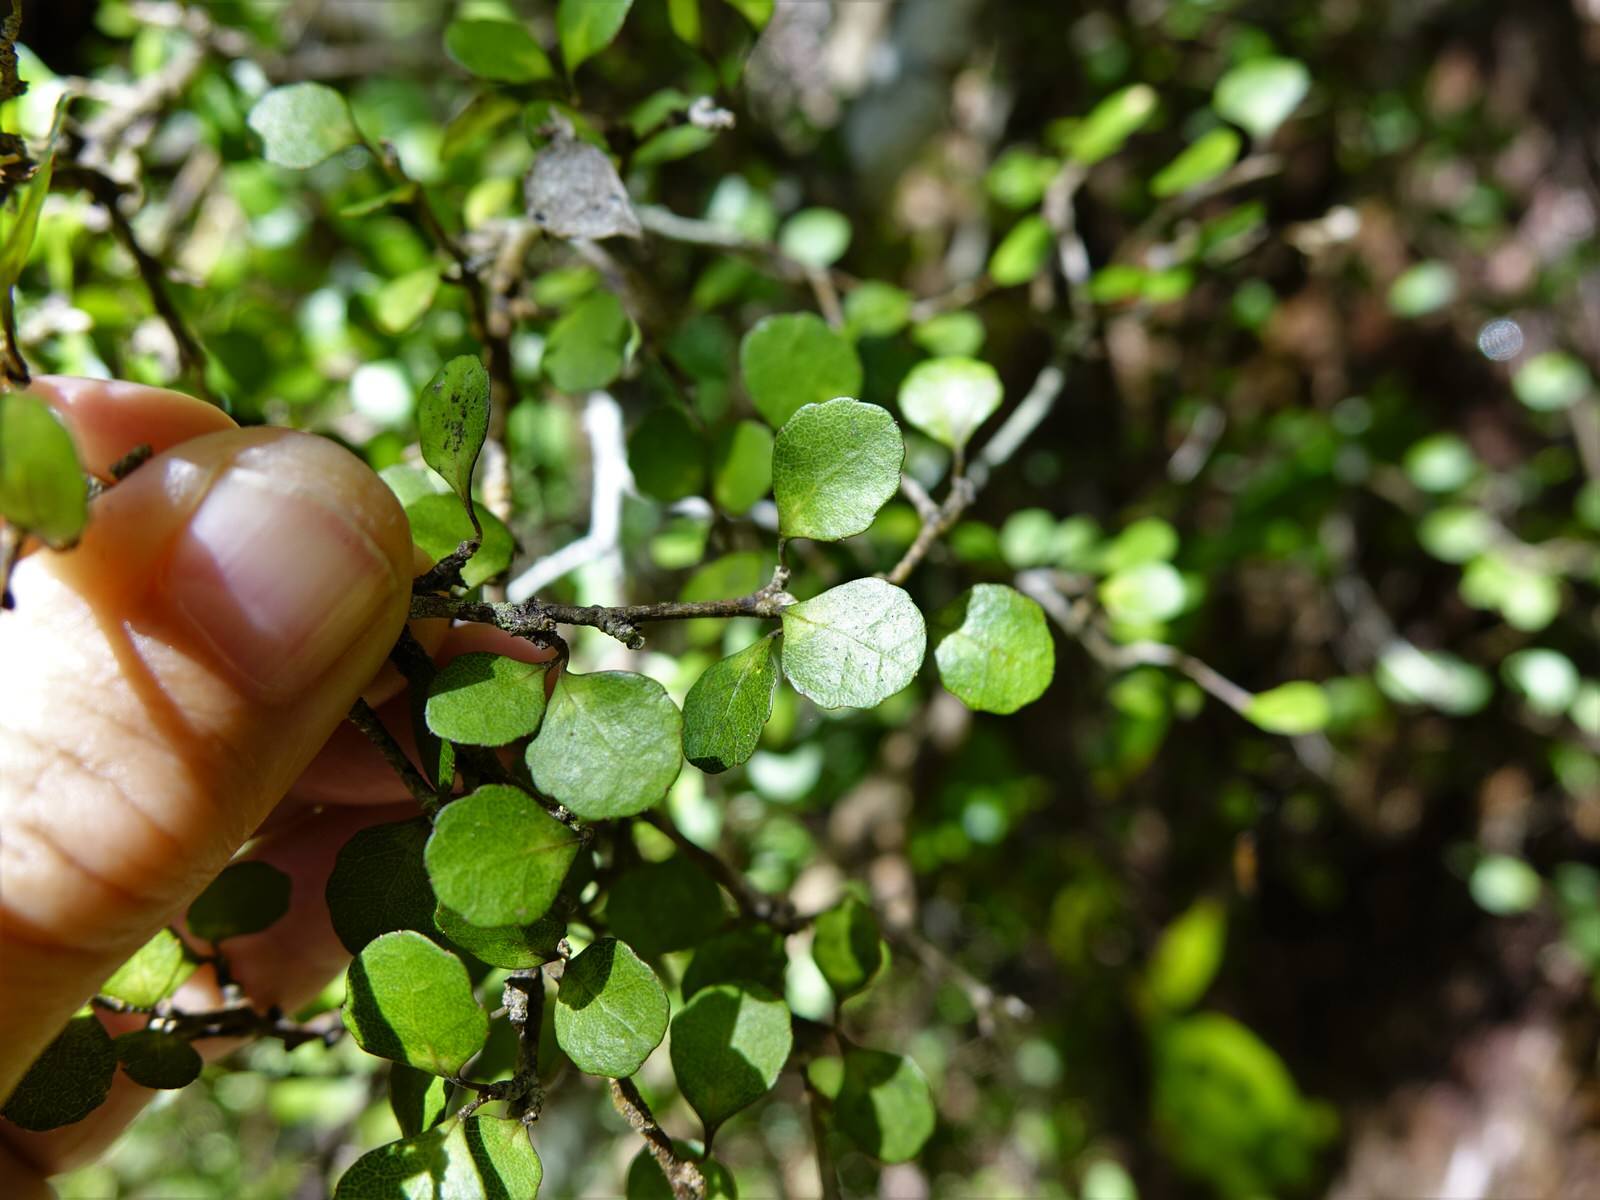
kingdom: Plantae
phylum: Tracheophyta
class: Magnoliopsida
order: Malpighiales
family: Violaceae
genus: Melicytus
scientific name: Melicytus micranthus
